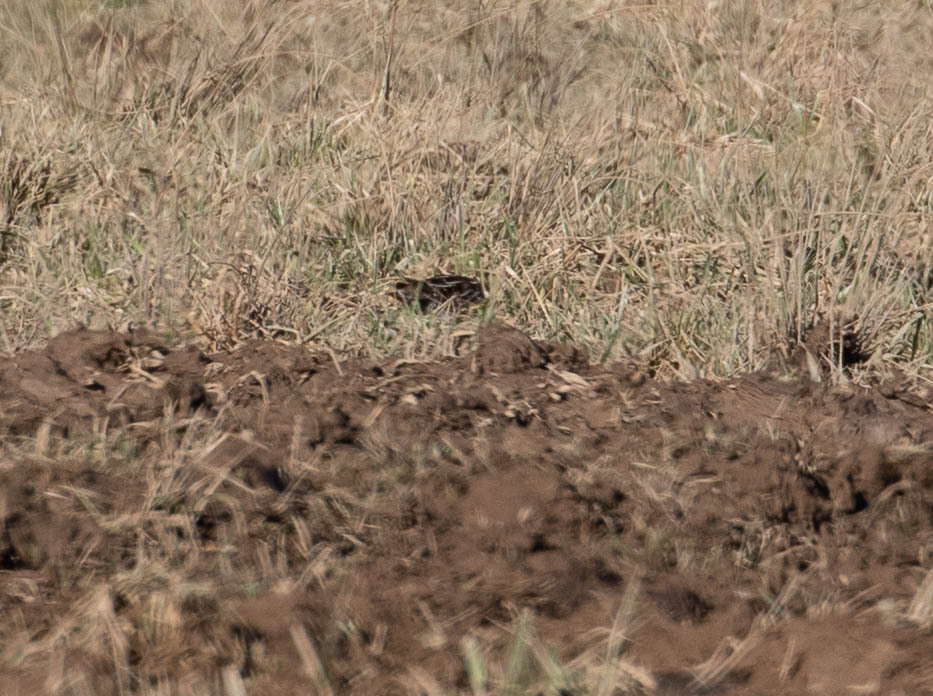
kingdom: Animalia
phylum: Chordata
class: Aves
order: Charadriiformes
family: Scolopacidae
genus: Gallinago
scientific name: Gallinago delicata
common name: Wilson's snipe
